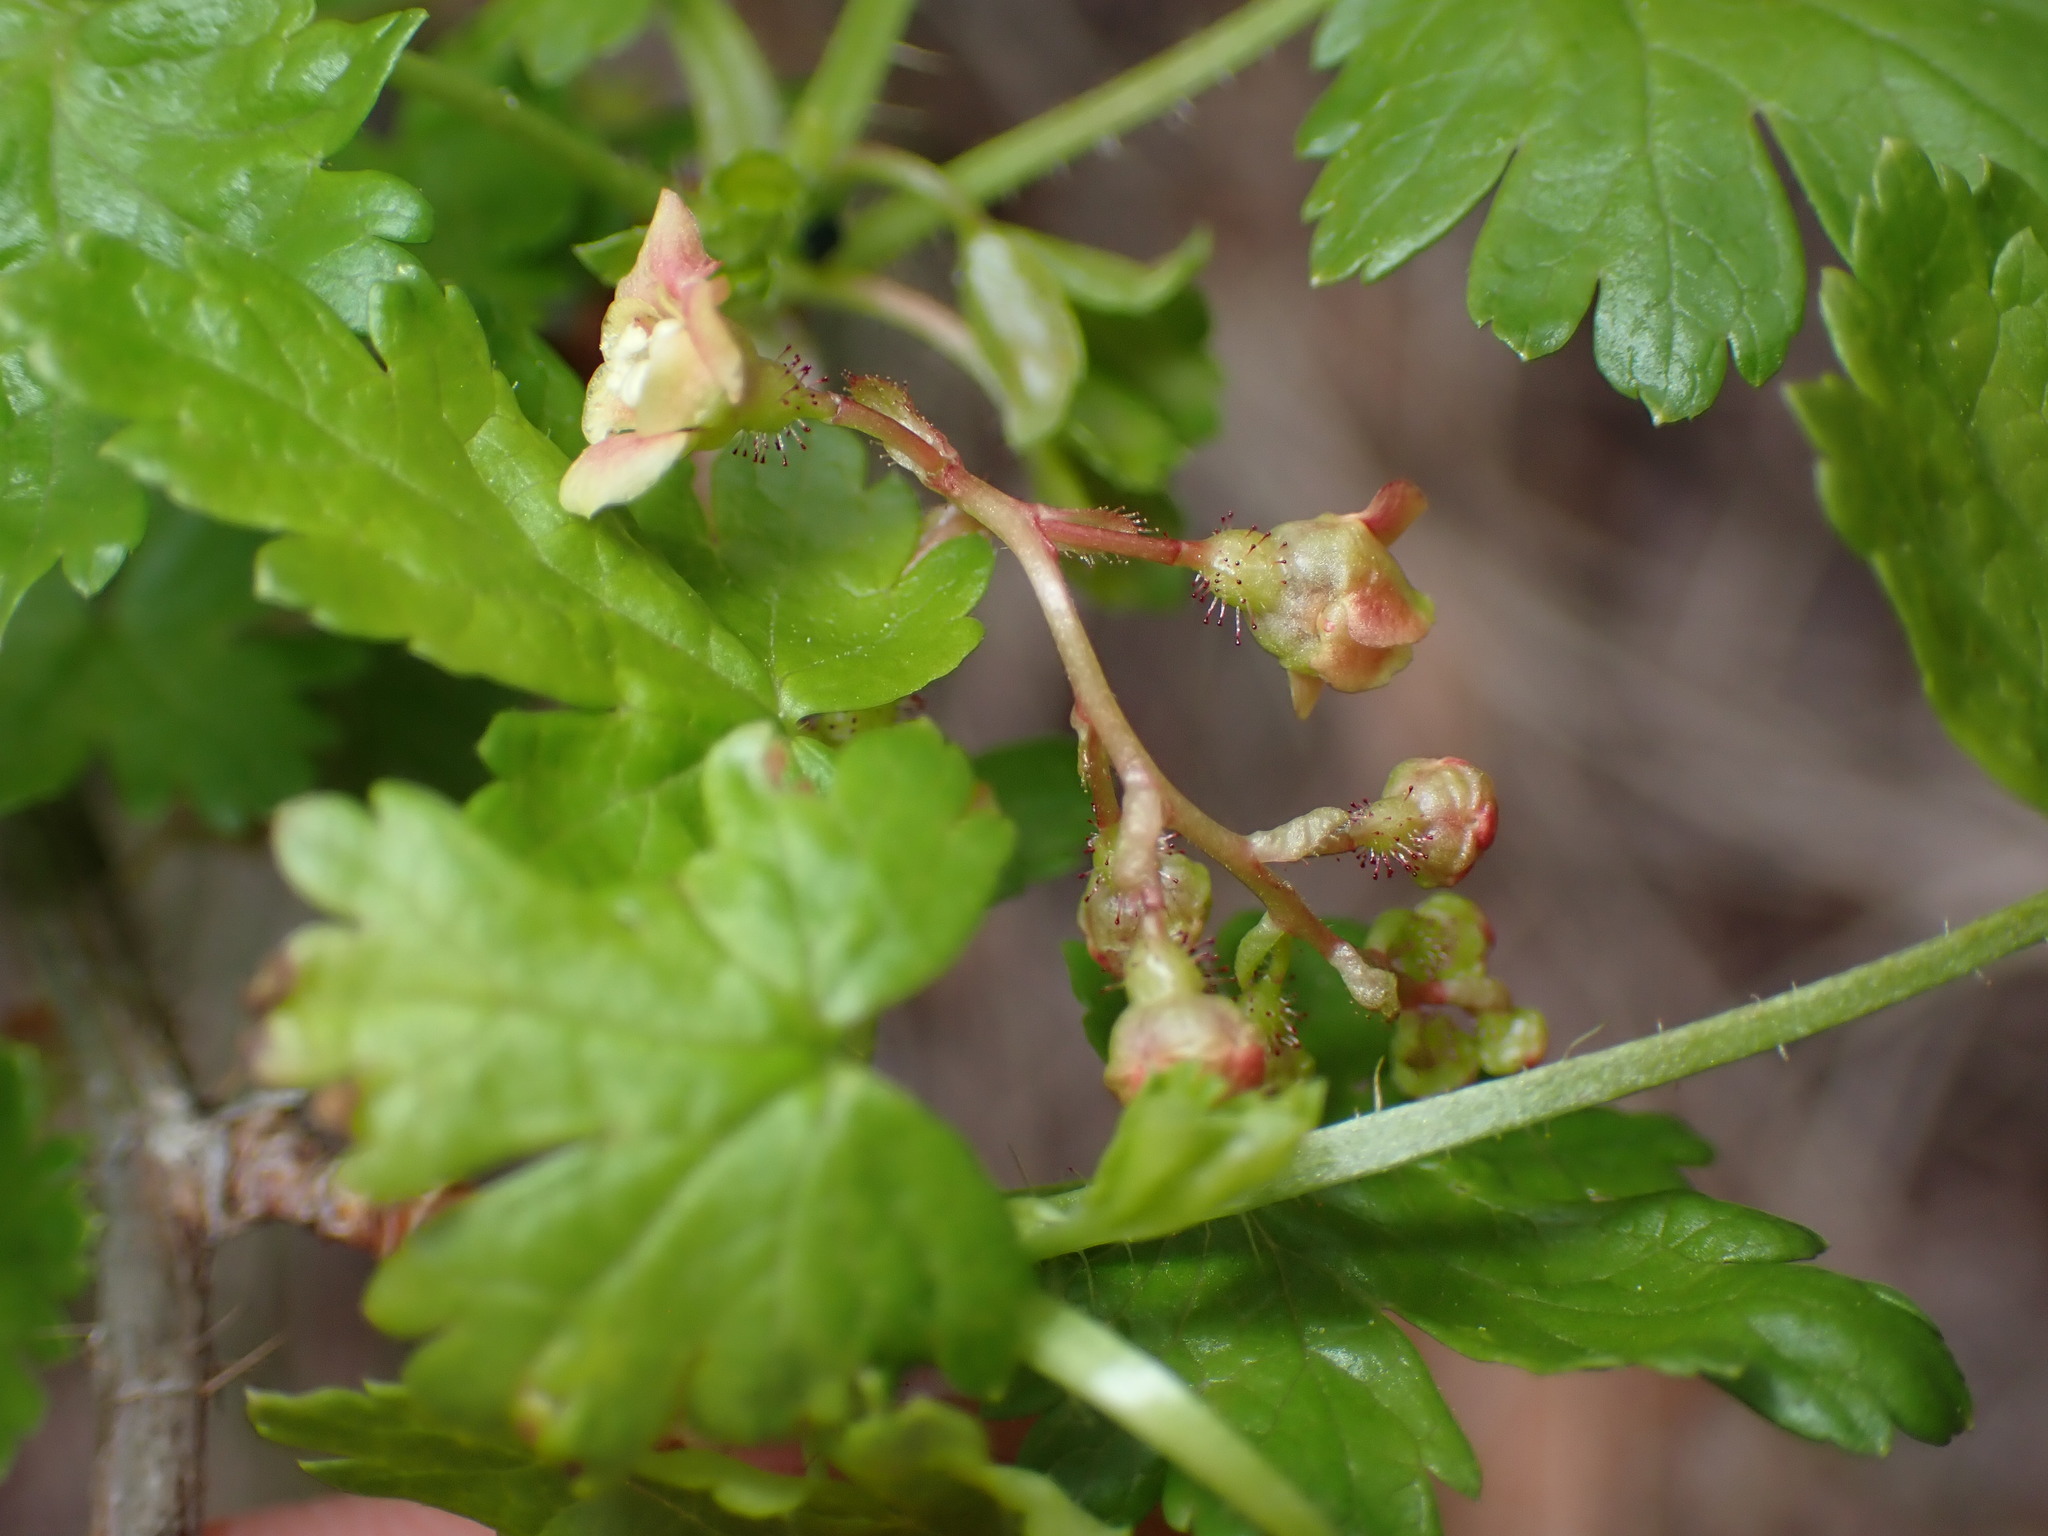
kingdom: Plantae
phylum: Tracheophyta
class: Magnoliopsida
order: Saxifragales
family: Grossulariaceae
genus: Ribes
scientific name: Ribes lacustre
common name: Black gooseberry
